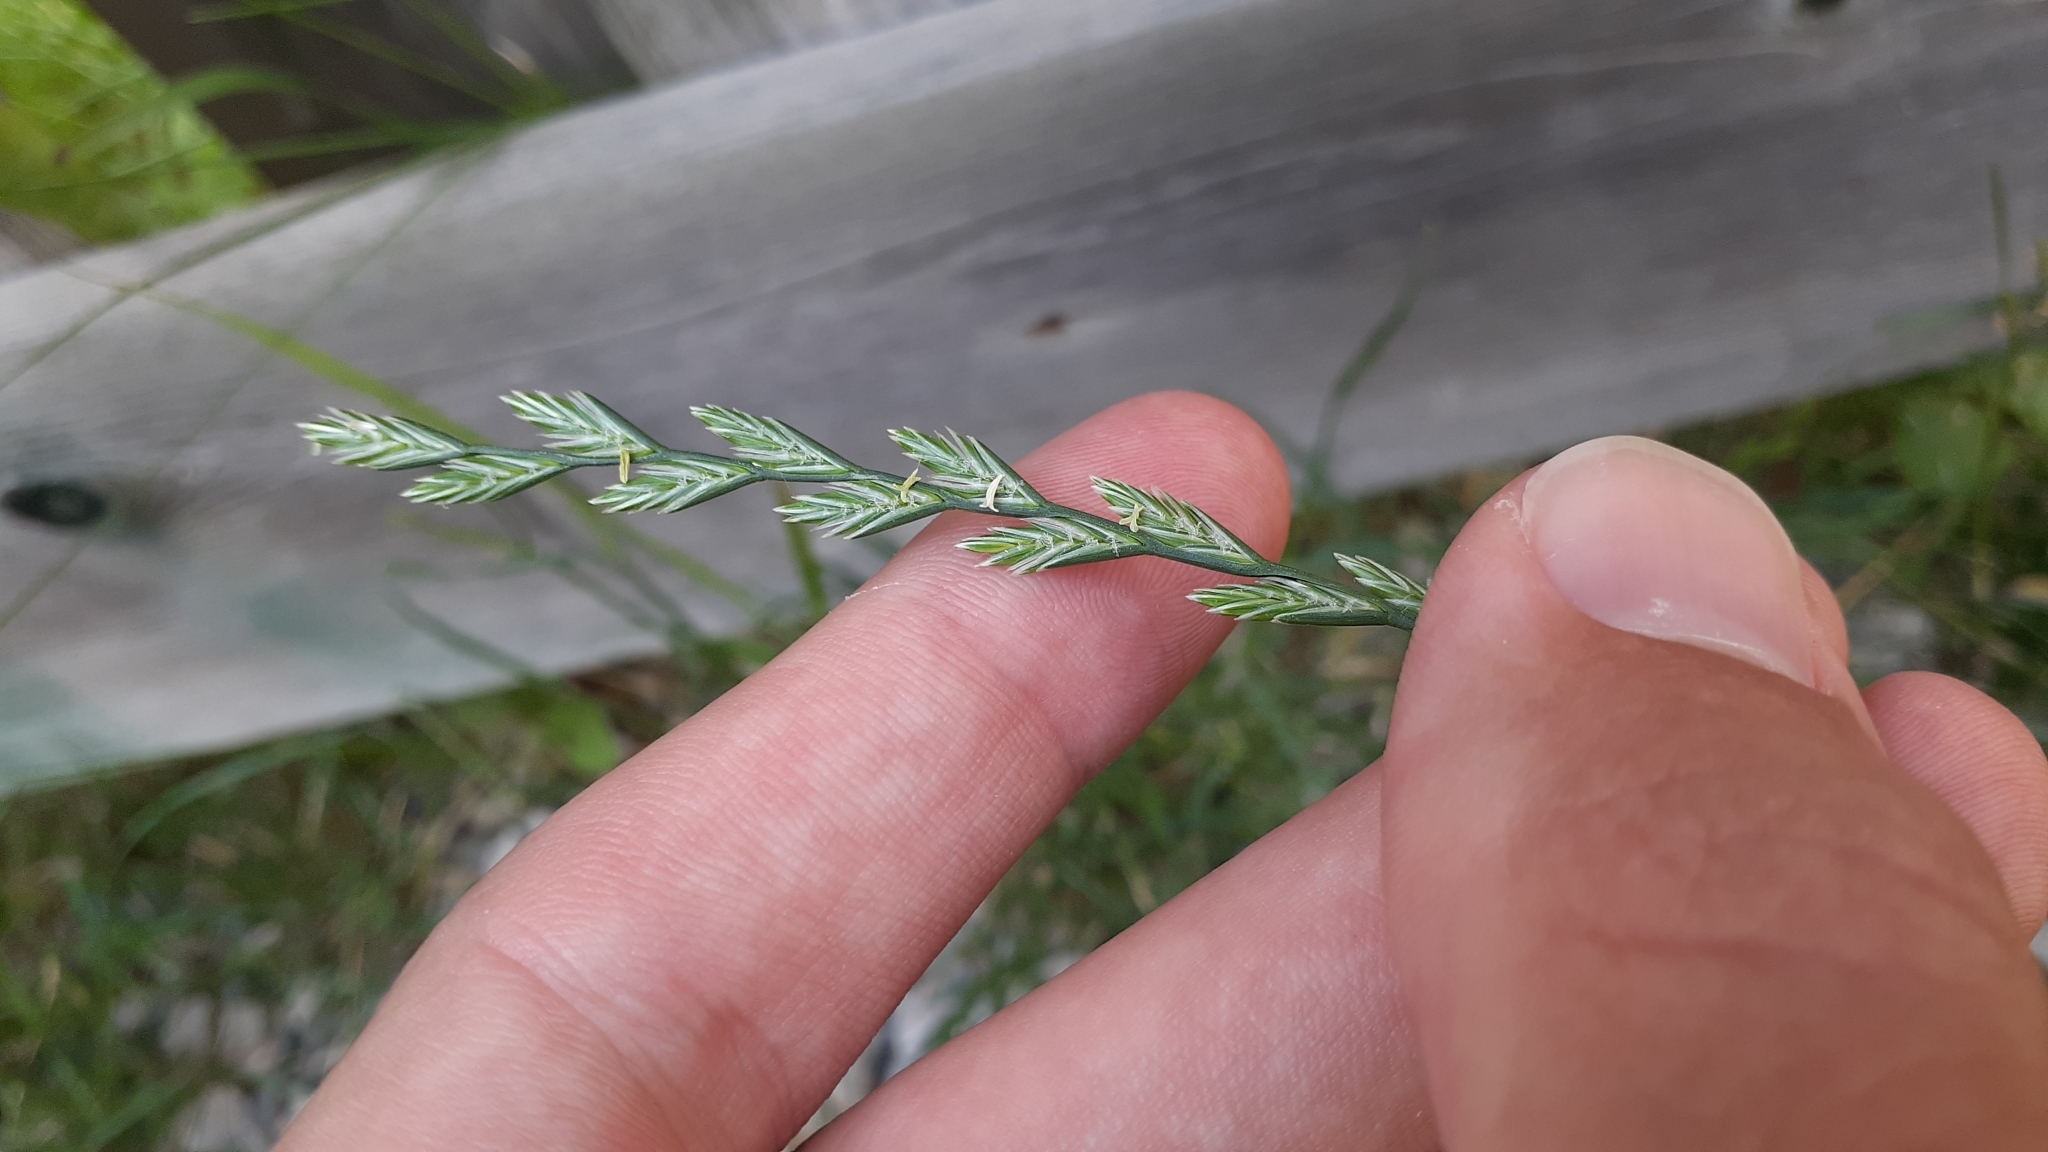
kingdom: Plantae
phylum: Tracheophyta
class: Liliopsida
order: Poales
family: Poaceae
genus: Lolium
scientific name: Lolium perenne
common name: Perennial ryegrass
